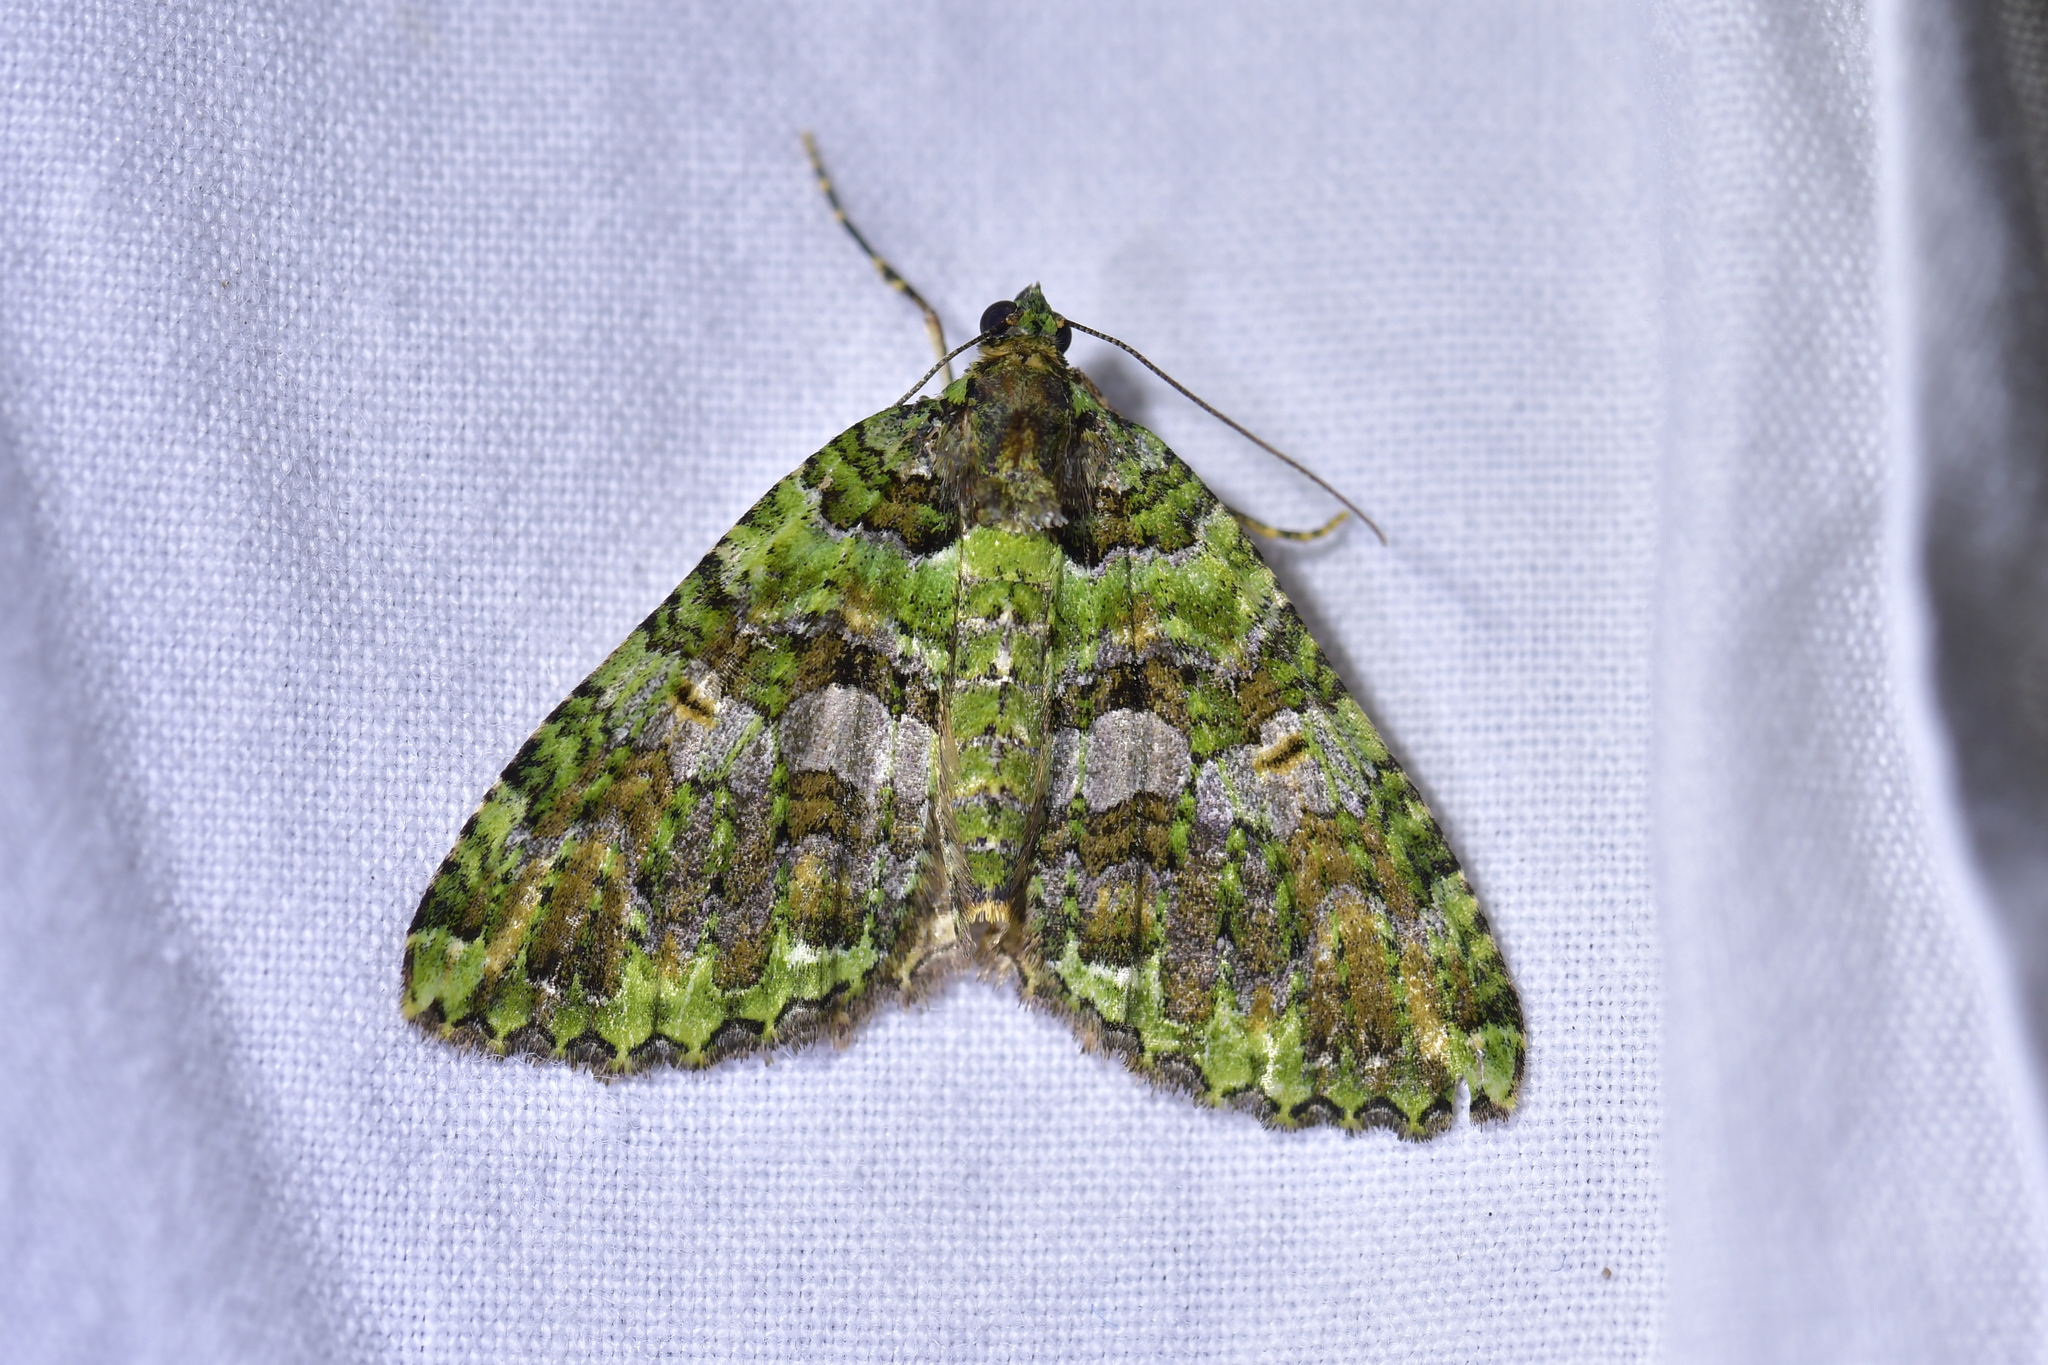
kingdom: Animalia
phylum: Arthropoda
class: Insecta
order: Lepidoptera
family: Geometridae
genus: Austrocidaria
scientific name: Austrocidaria similata
